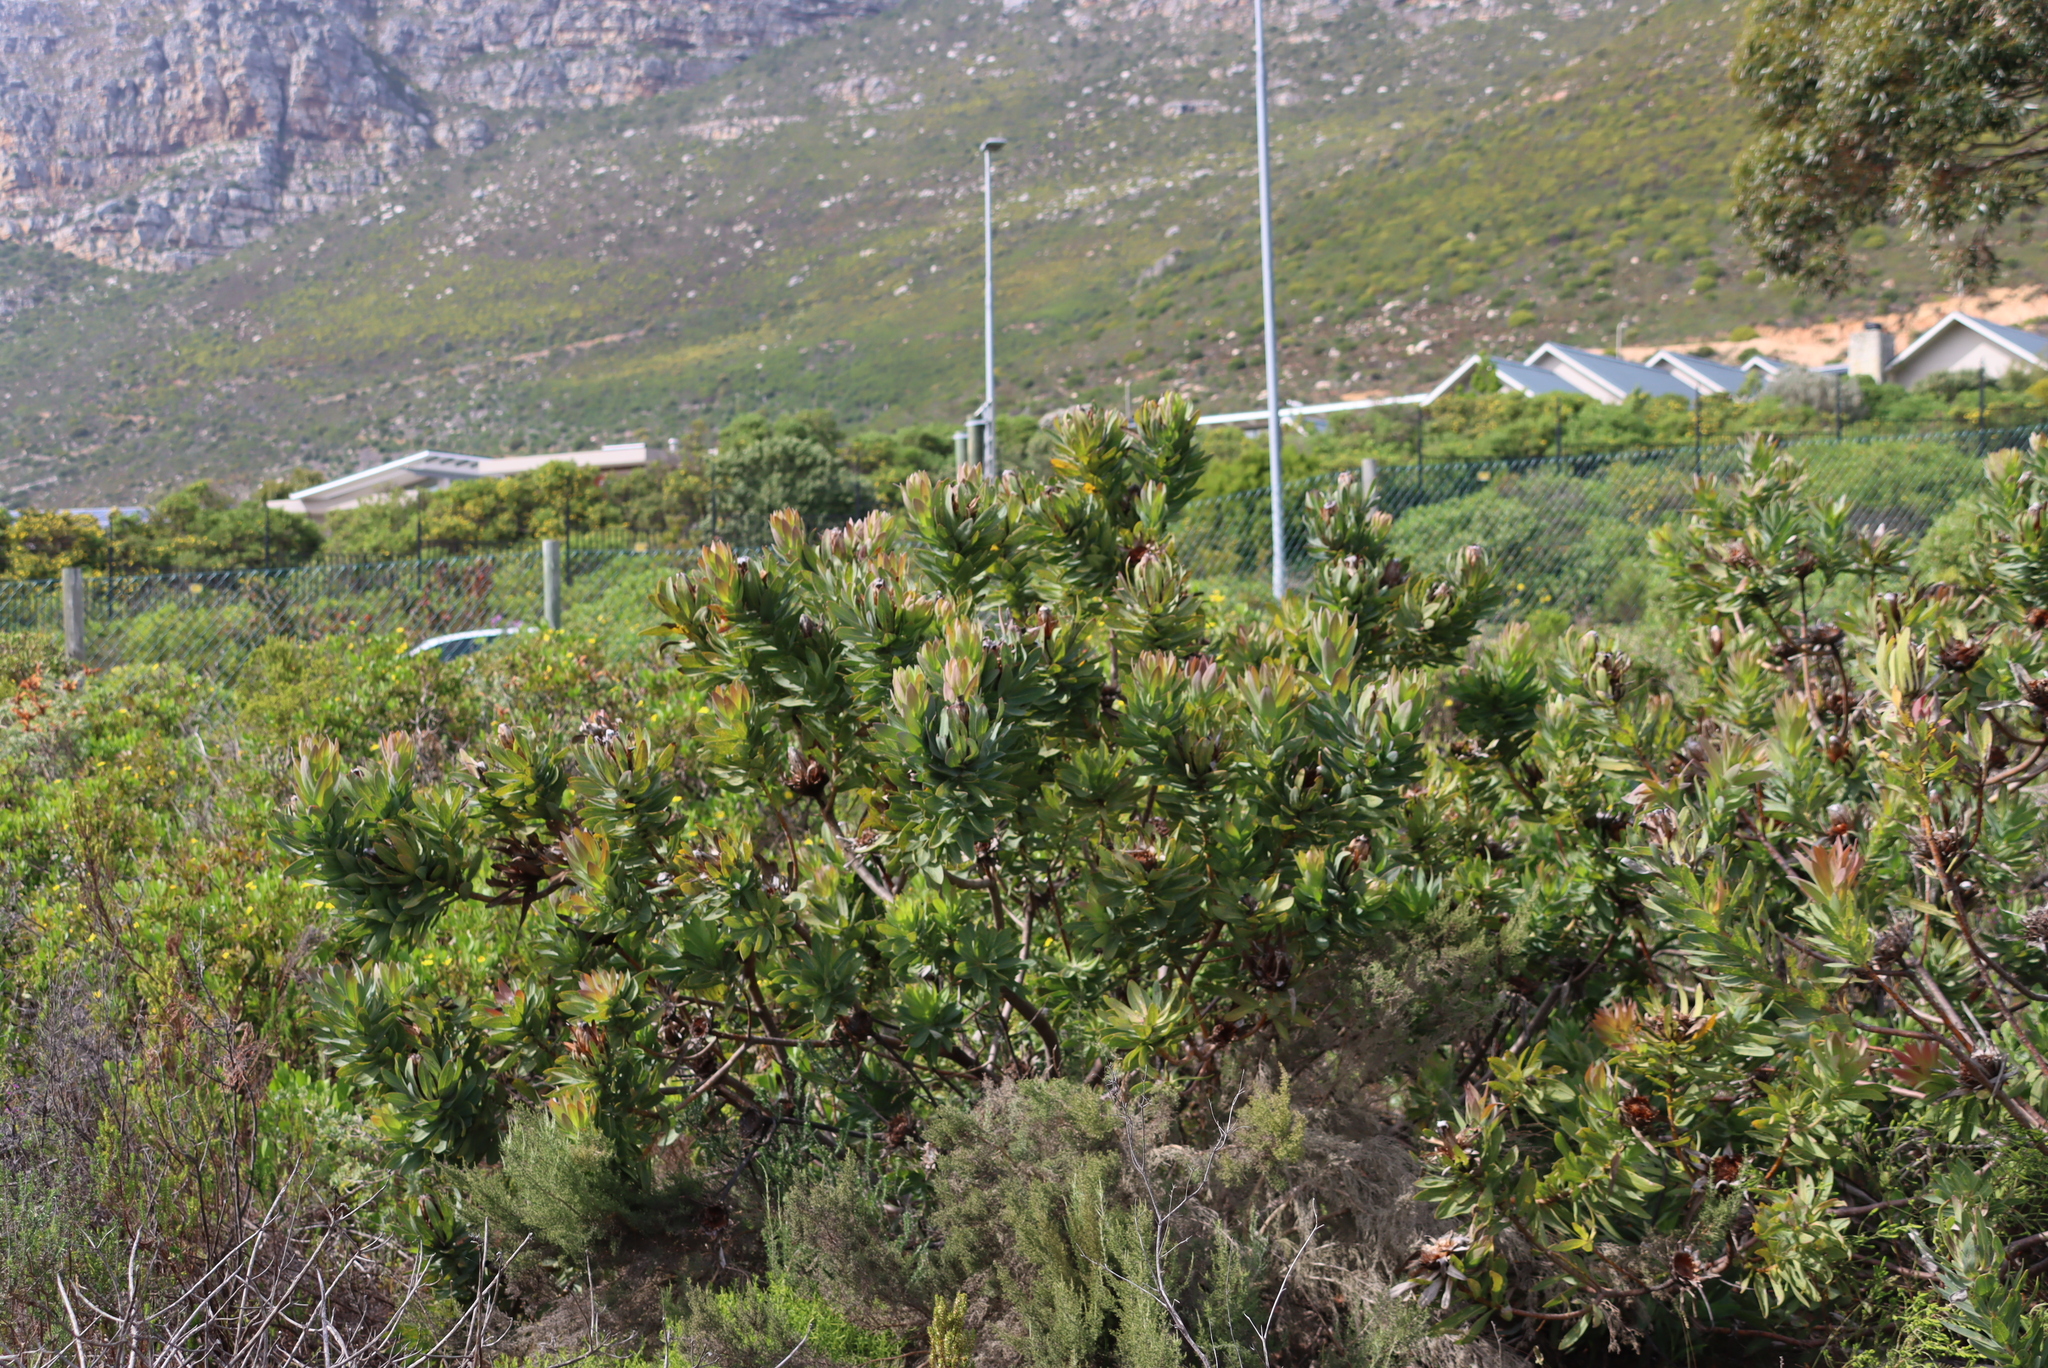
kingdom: Plantae
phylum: Tracheophyta
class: Magnoliopsida
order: Proteales
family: Proteaceae
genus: Protea
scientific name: Protea laurifolia
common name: Grey-leaf sugarbsh
